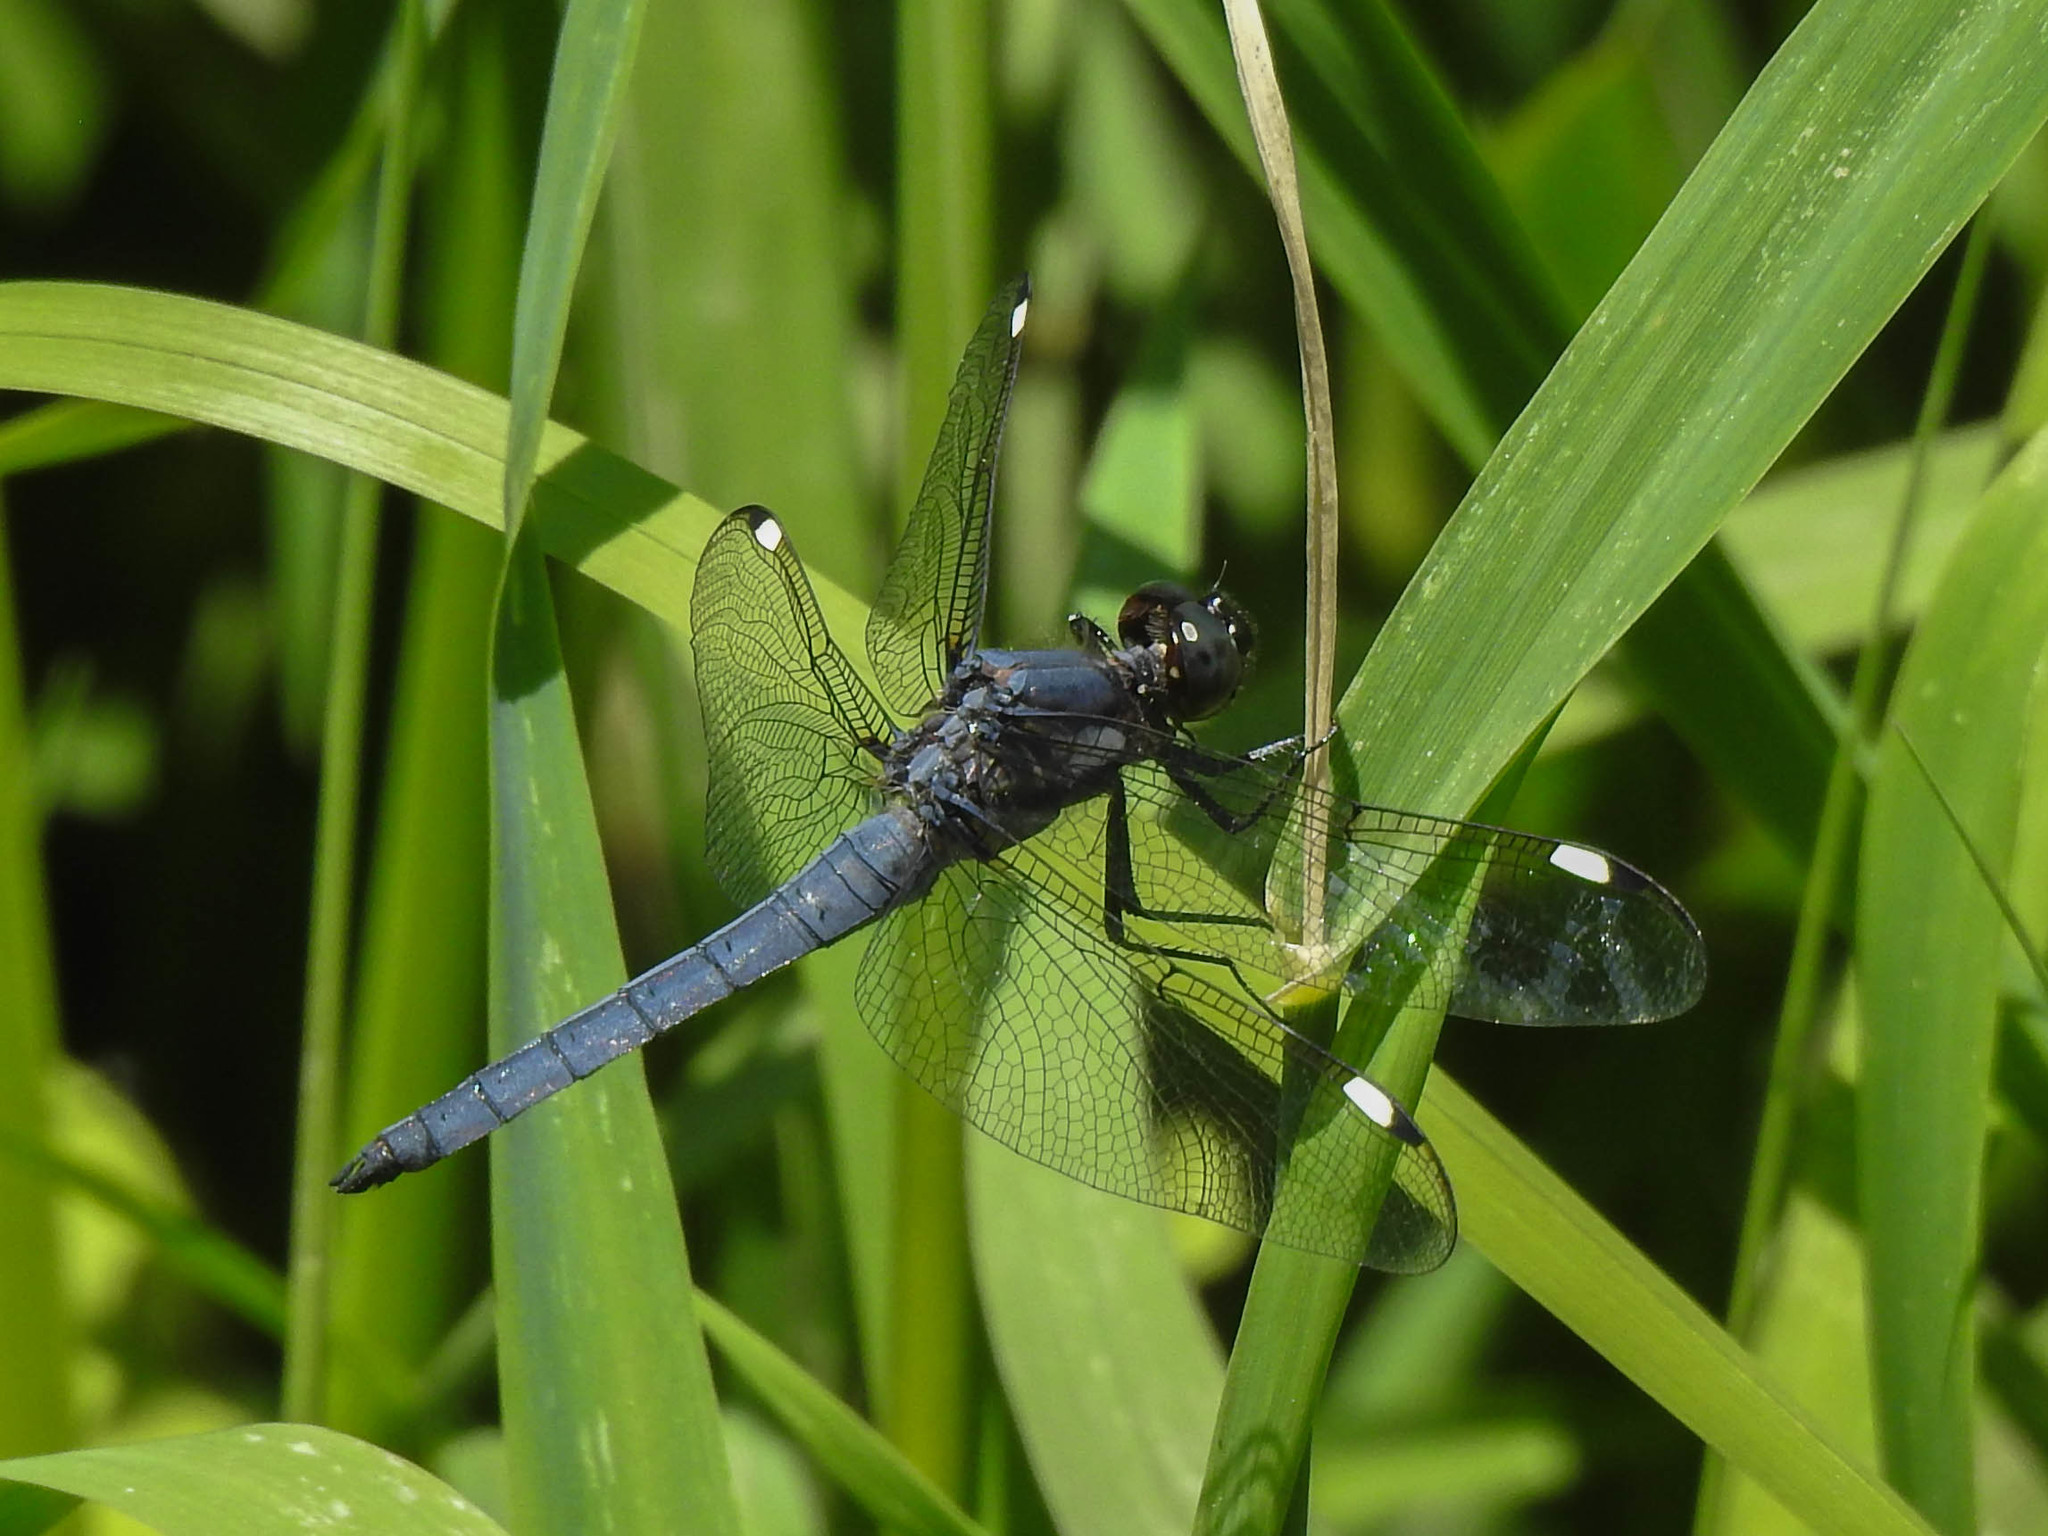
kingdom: Animalia
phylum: Arthropoda
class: Insecta
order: Odonata
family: Libellulidae
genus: Libellula
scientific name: Libellula cyanea
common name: Spangled skimmer
